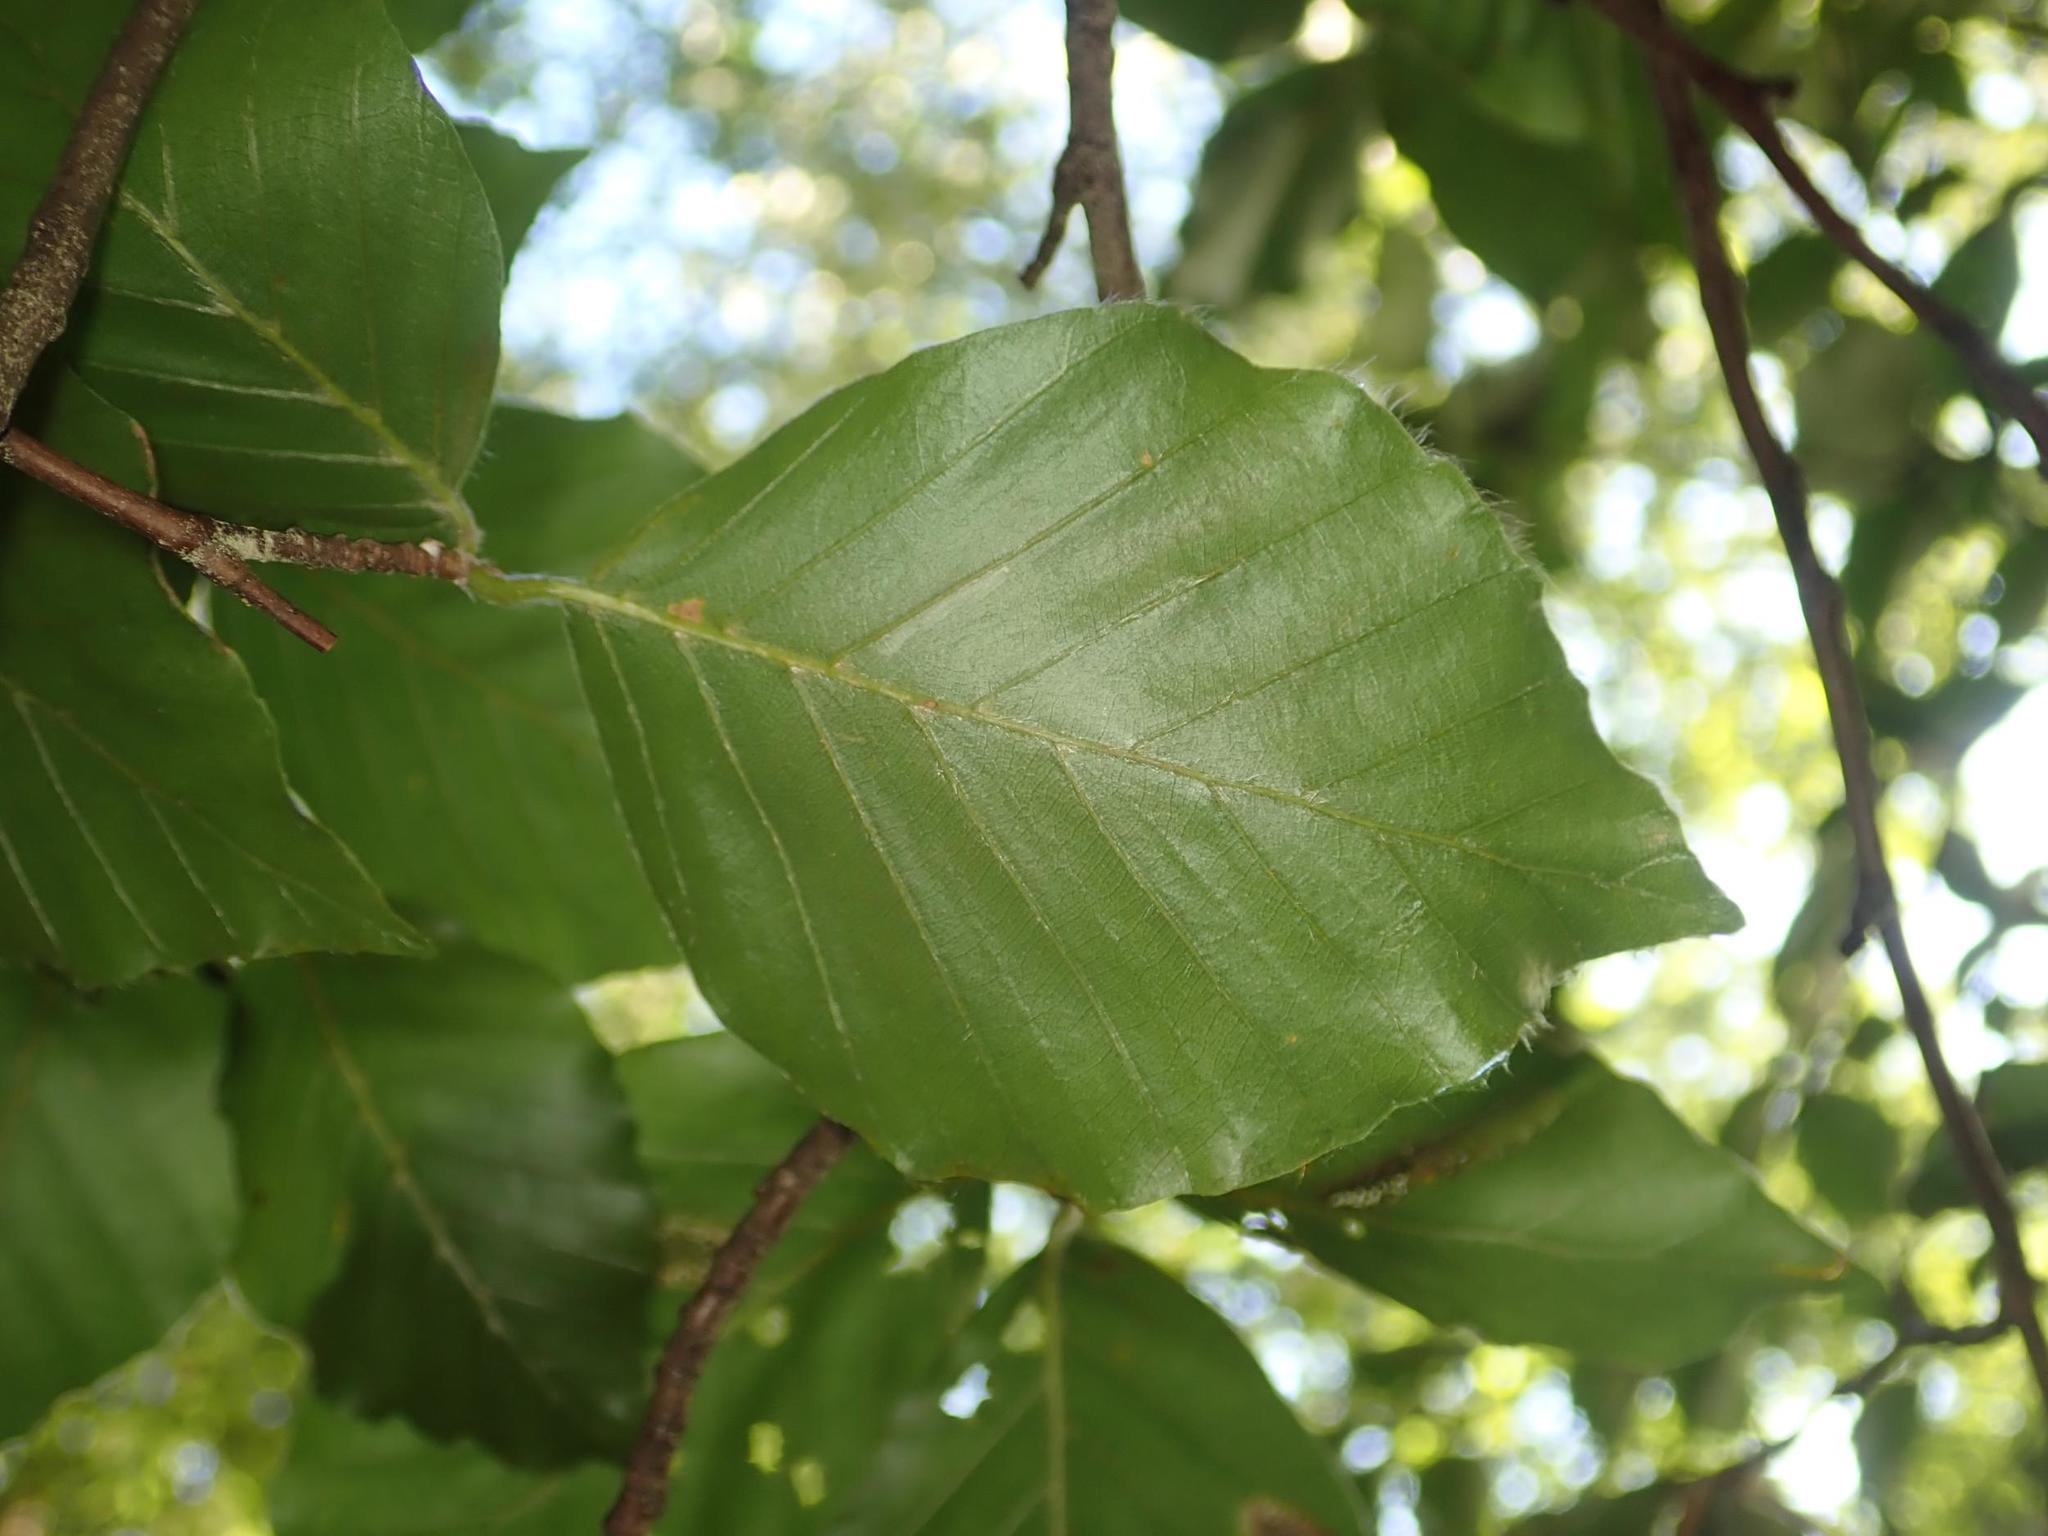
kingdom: Plantae
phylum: Tracheophyta
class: Magnoliopsida
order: Fagales
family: Fagaceae
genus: Fagus
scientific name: Fagus sylvatica
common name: Beech
